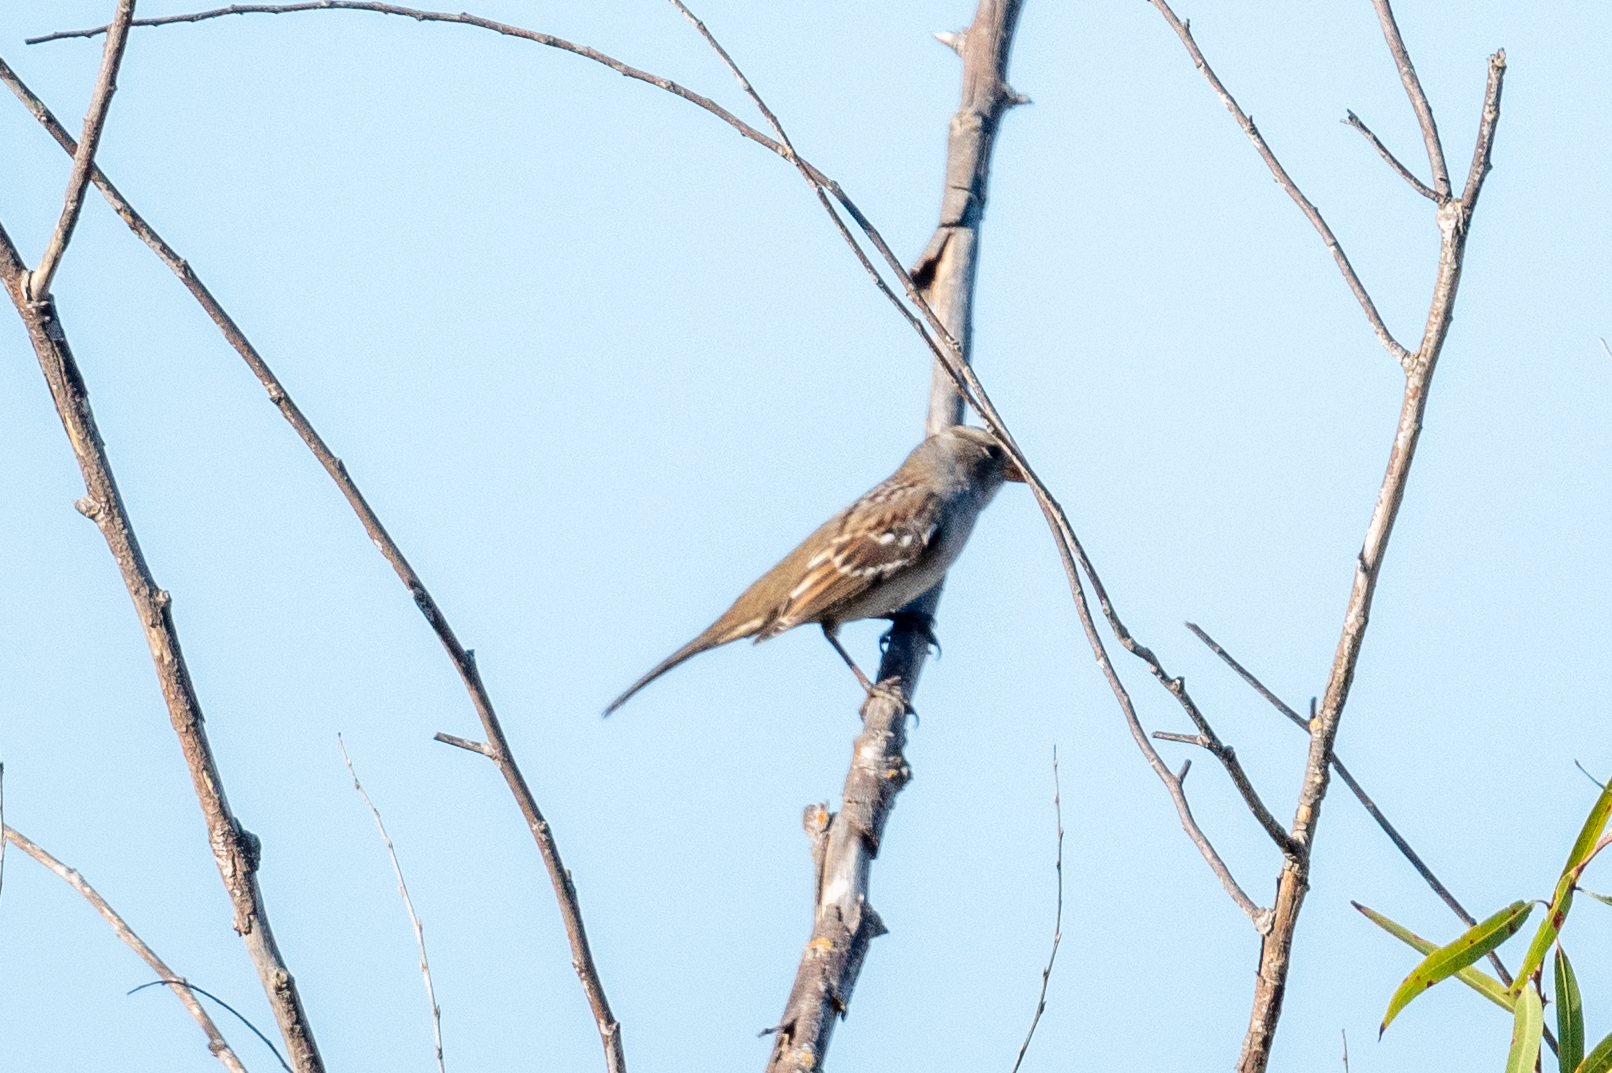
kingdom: Animalia
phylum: Chordata
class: Aves
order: Passeriformes
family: Passerellidae
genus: Zonotrichia
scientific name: Zonotrichia leucophrys
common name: White-crowned sparrow
